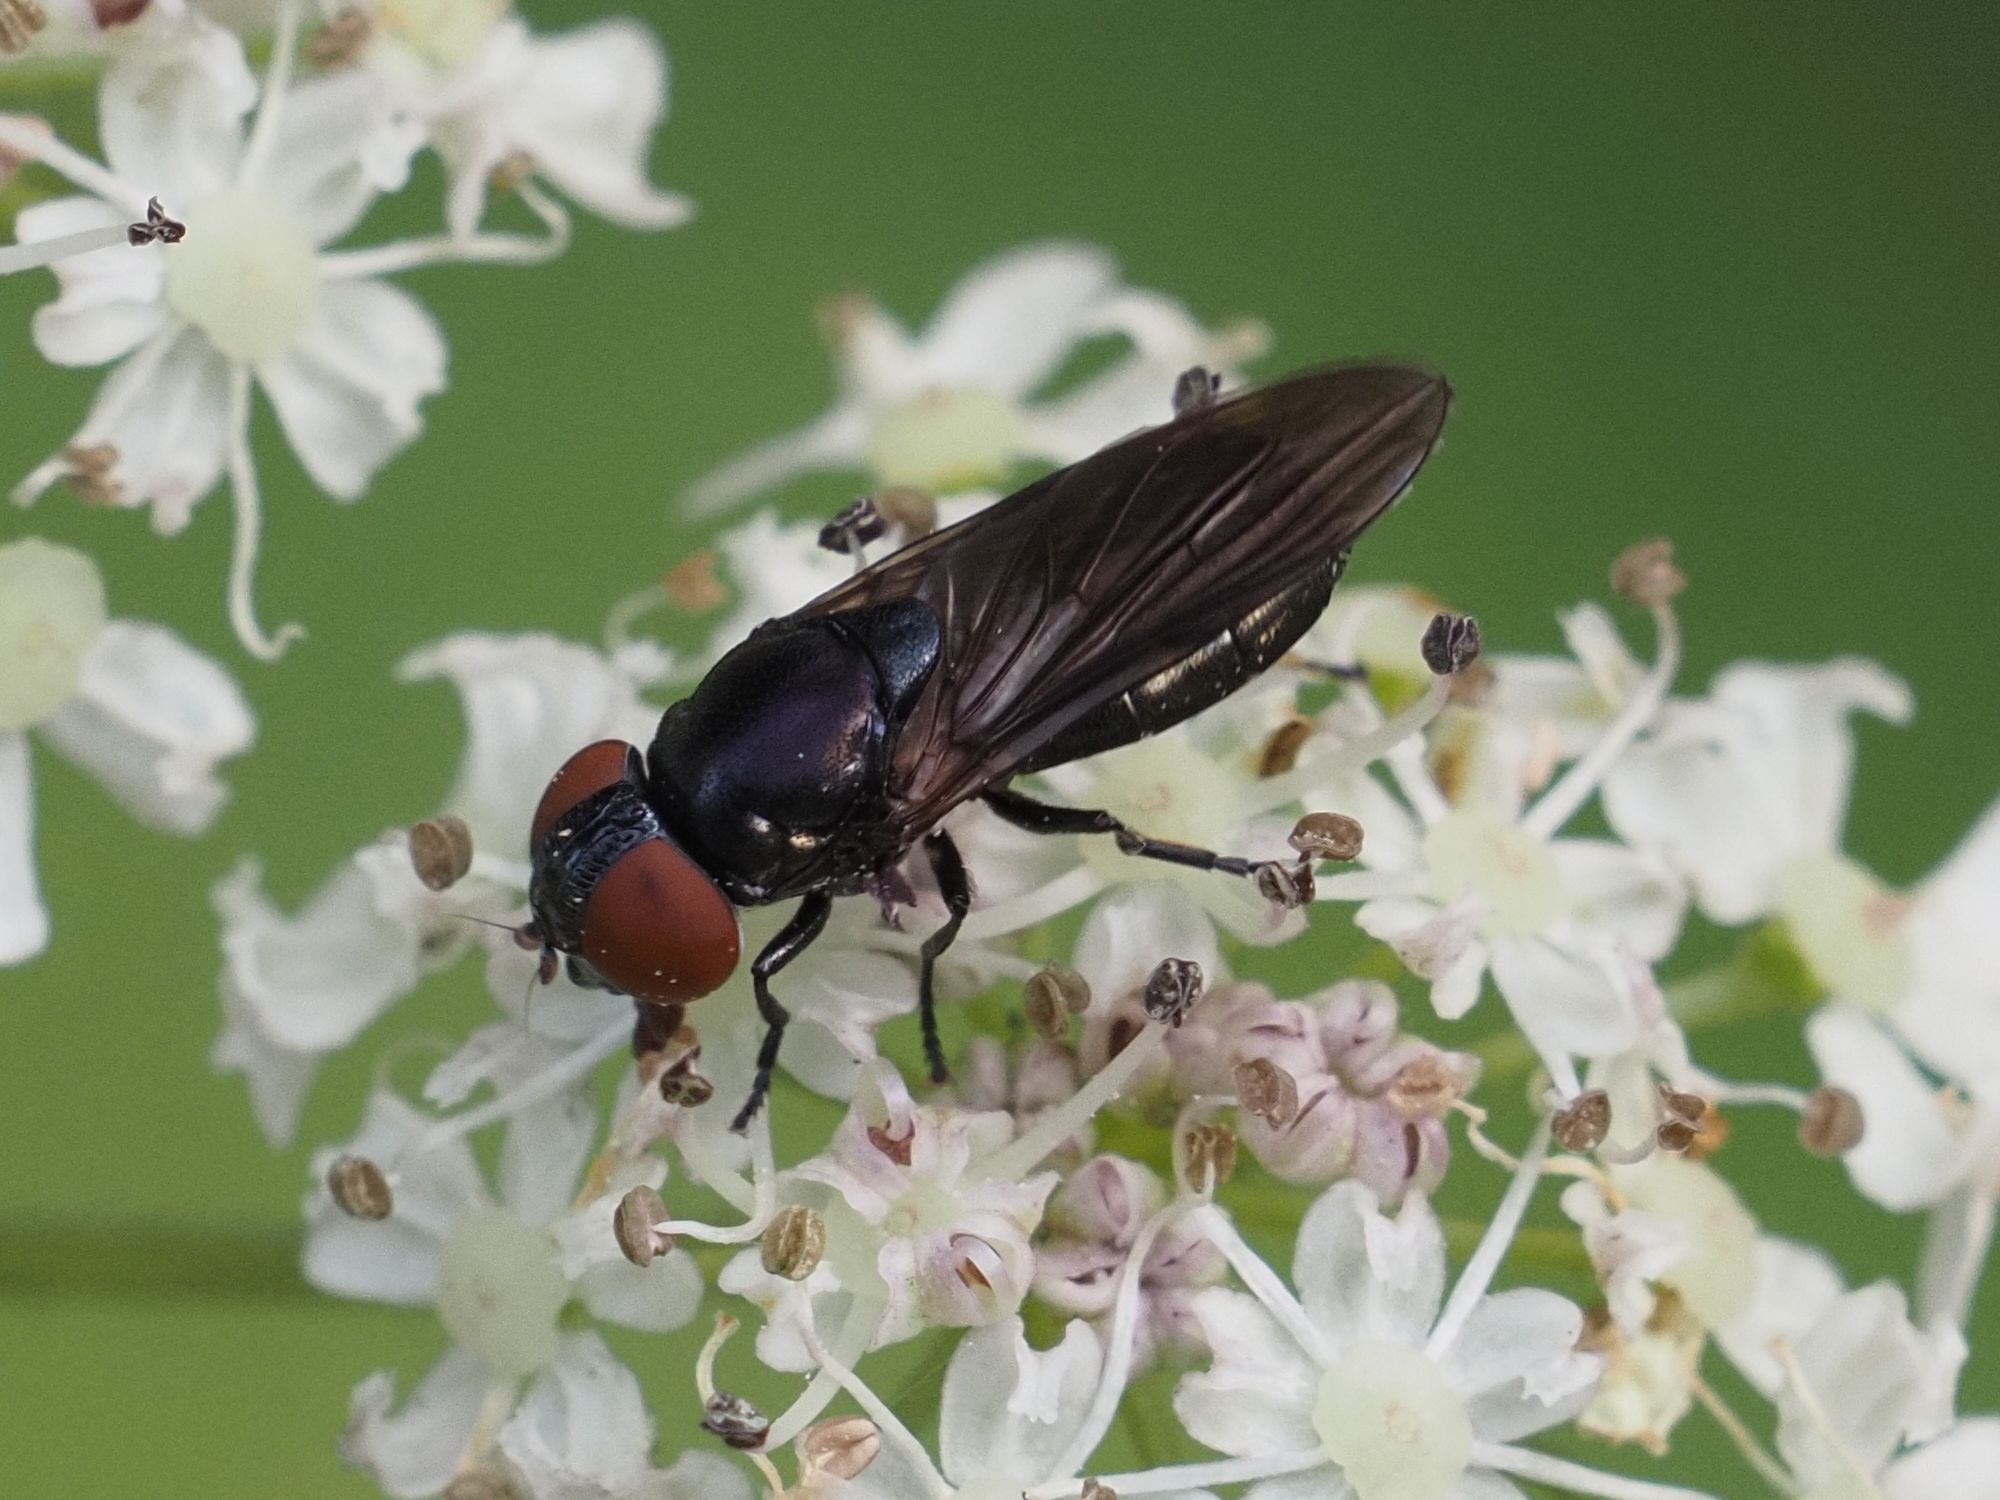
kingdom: Animalia
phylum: Arthropoda
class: Insecta
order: Diptera
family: Syrphidae
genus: Chrysogaster
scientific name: Chrysogaster solstitialis
